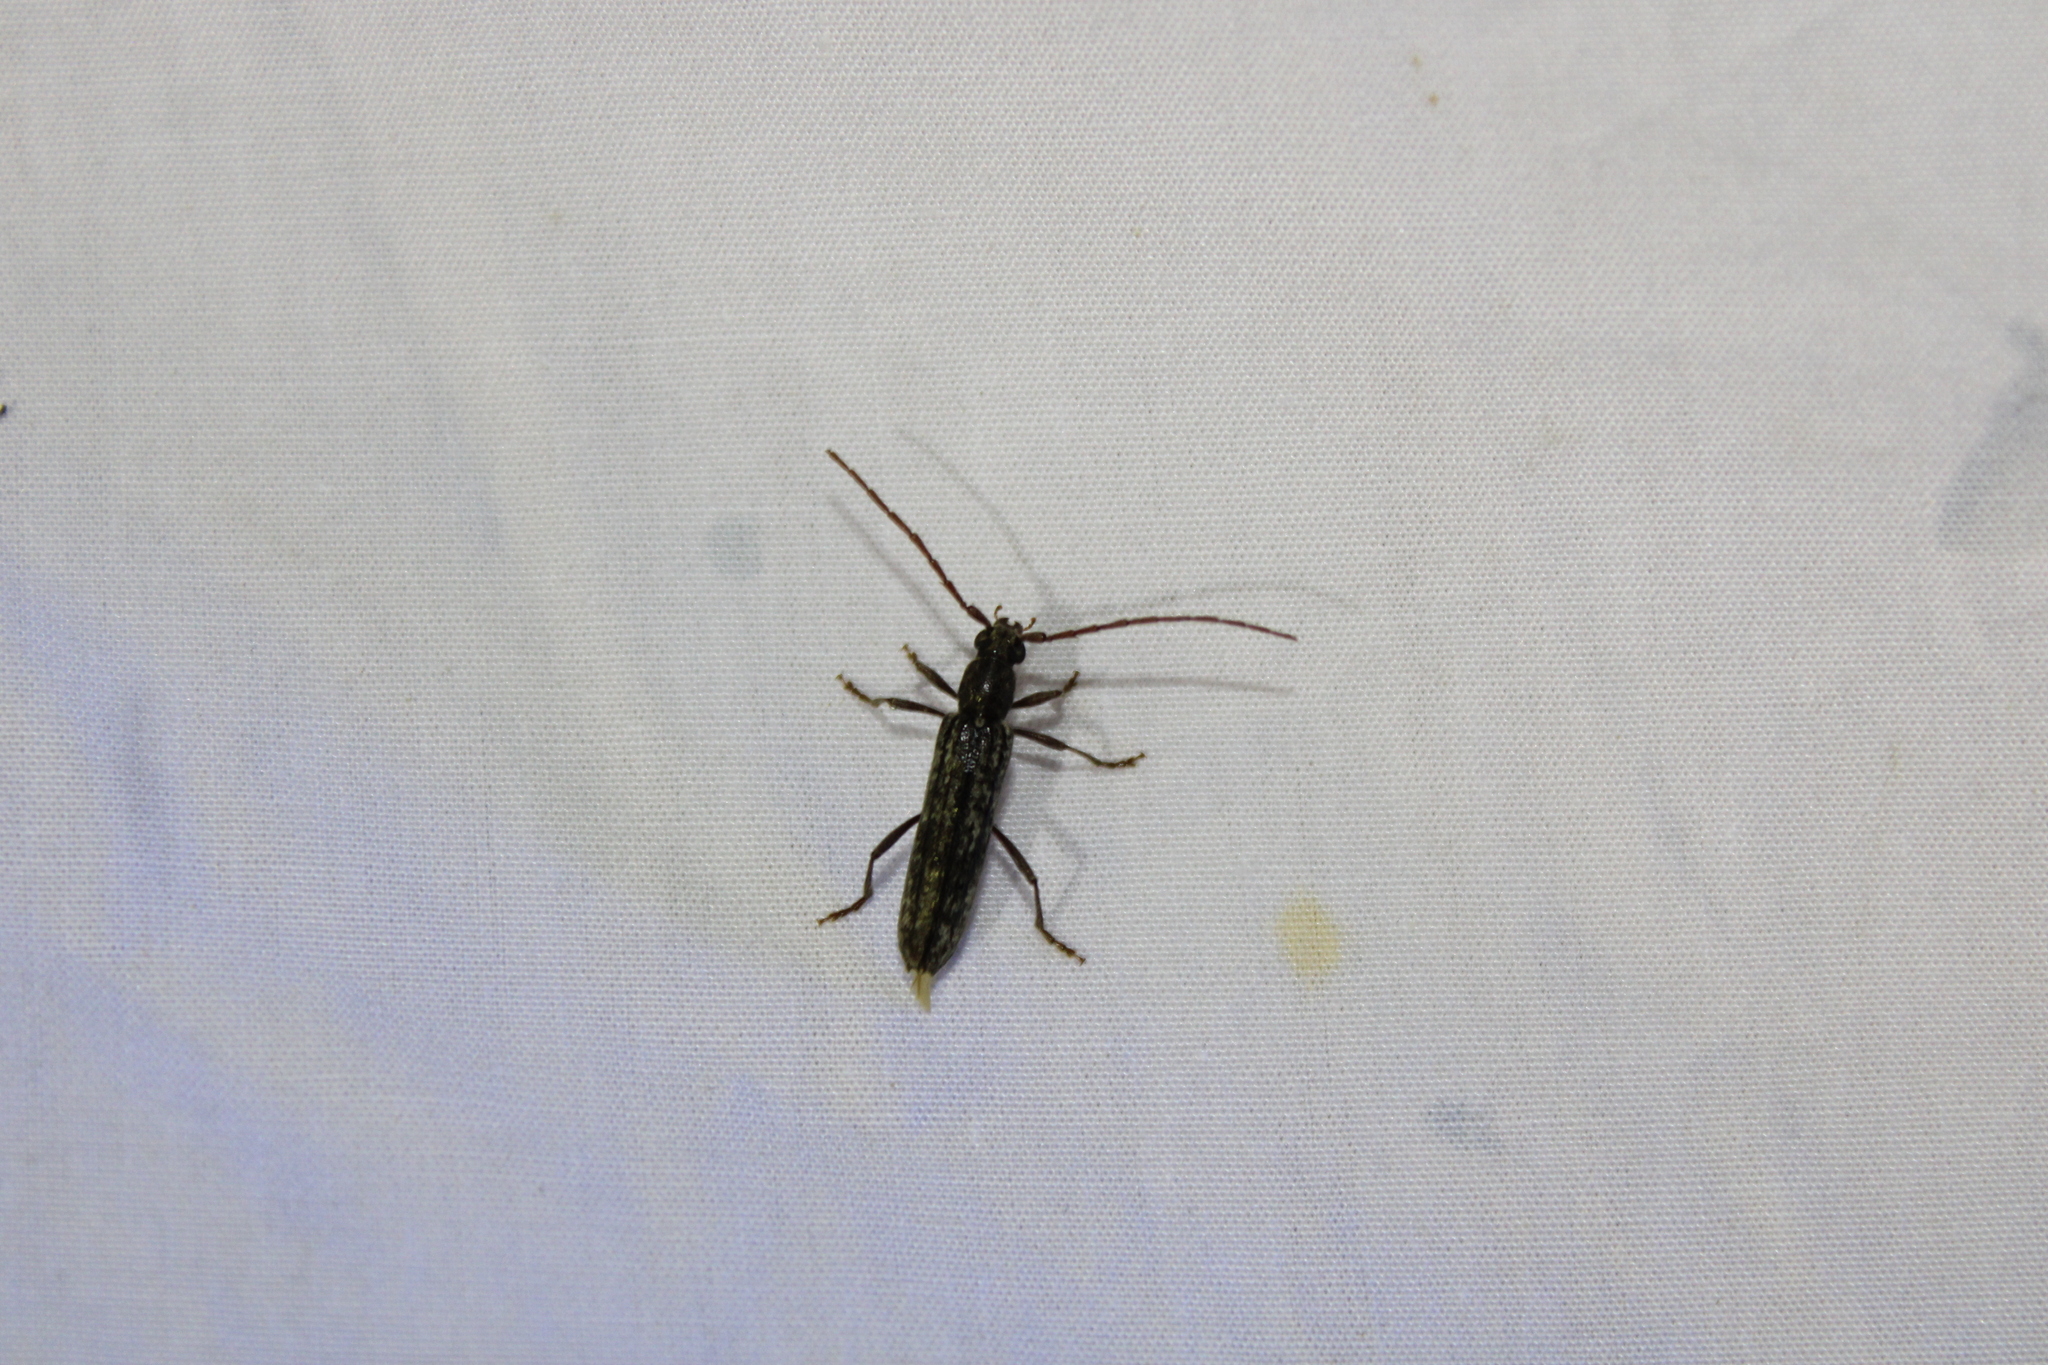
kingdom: Animalia
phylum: Arthropoda
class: Insecta
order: Coleoptera
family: Cerambycidae
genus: Anelaphus
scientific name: Anelaphus villosus
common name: Twig pruner
